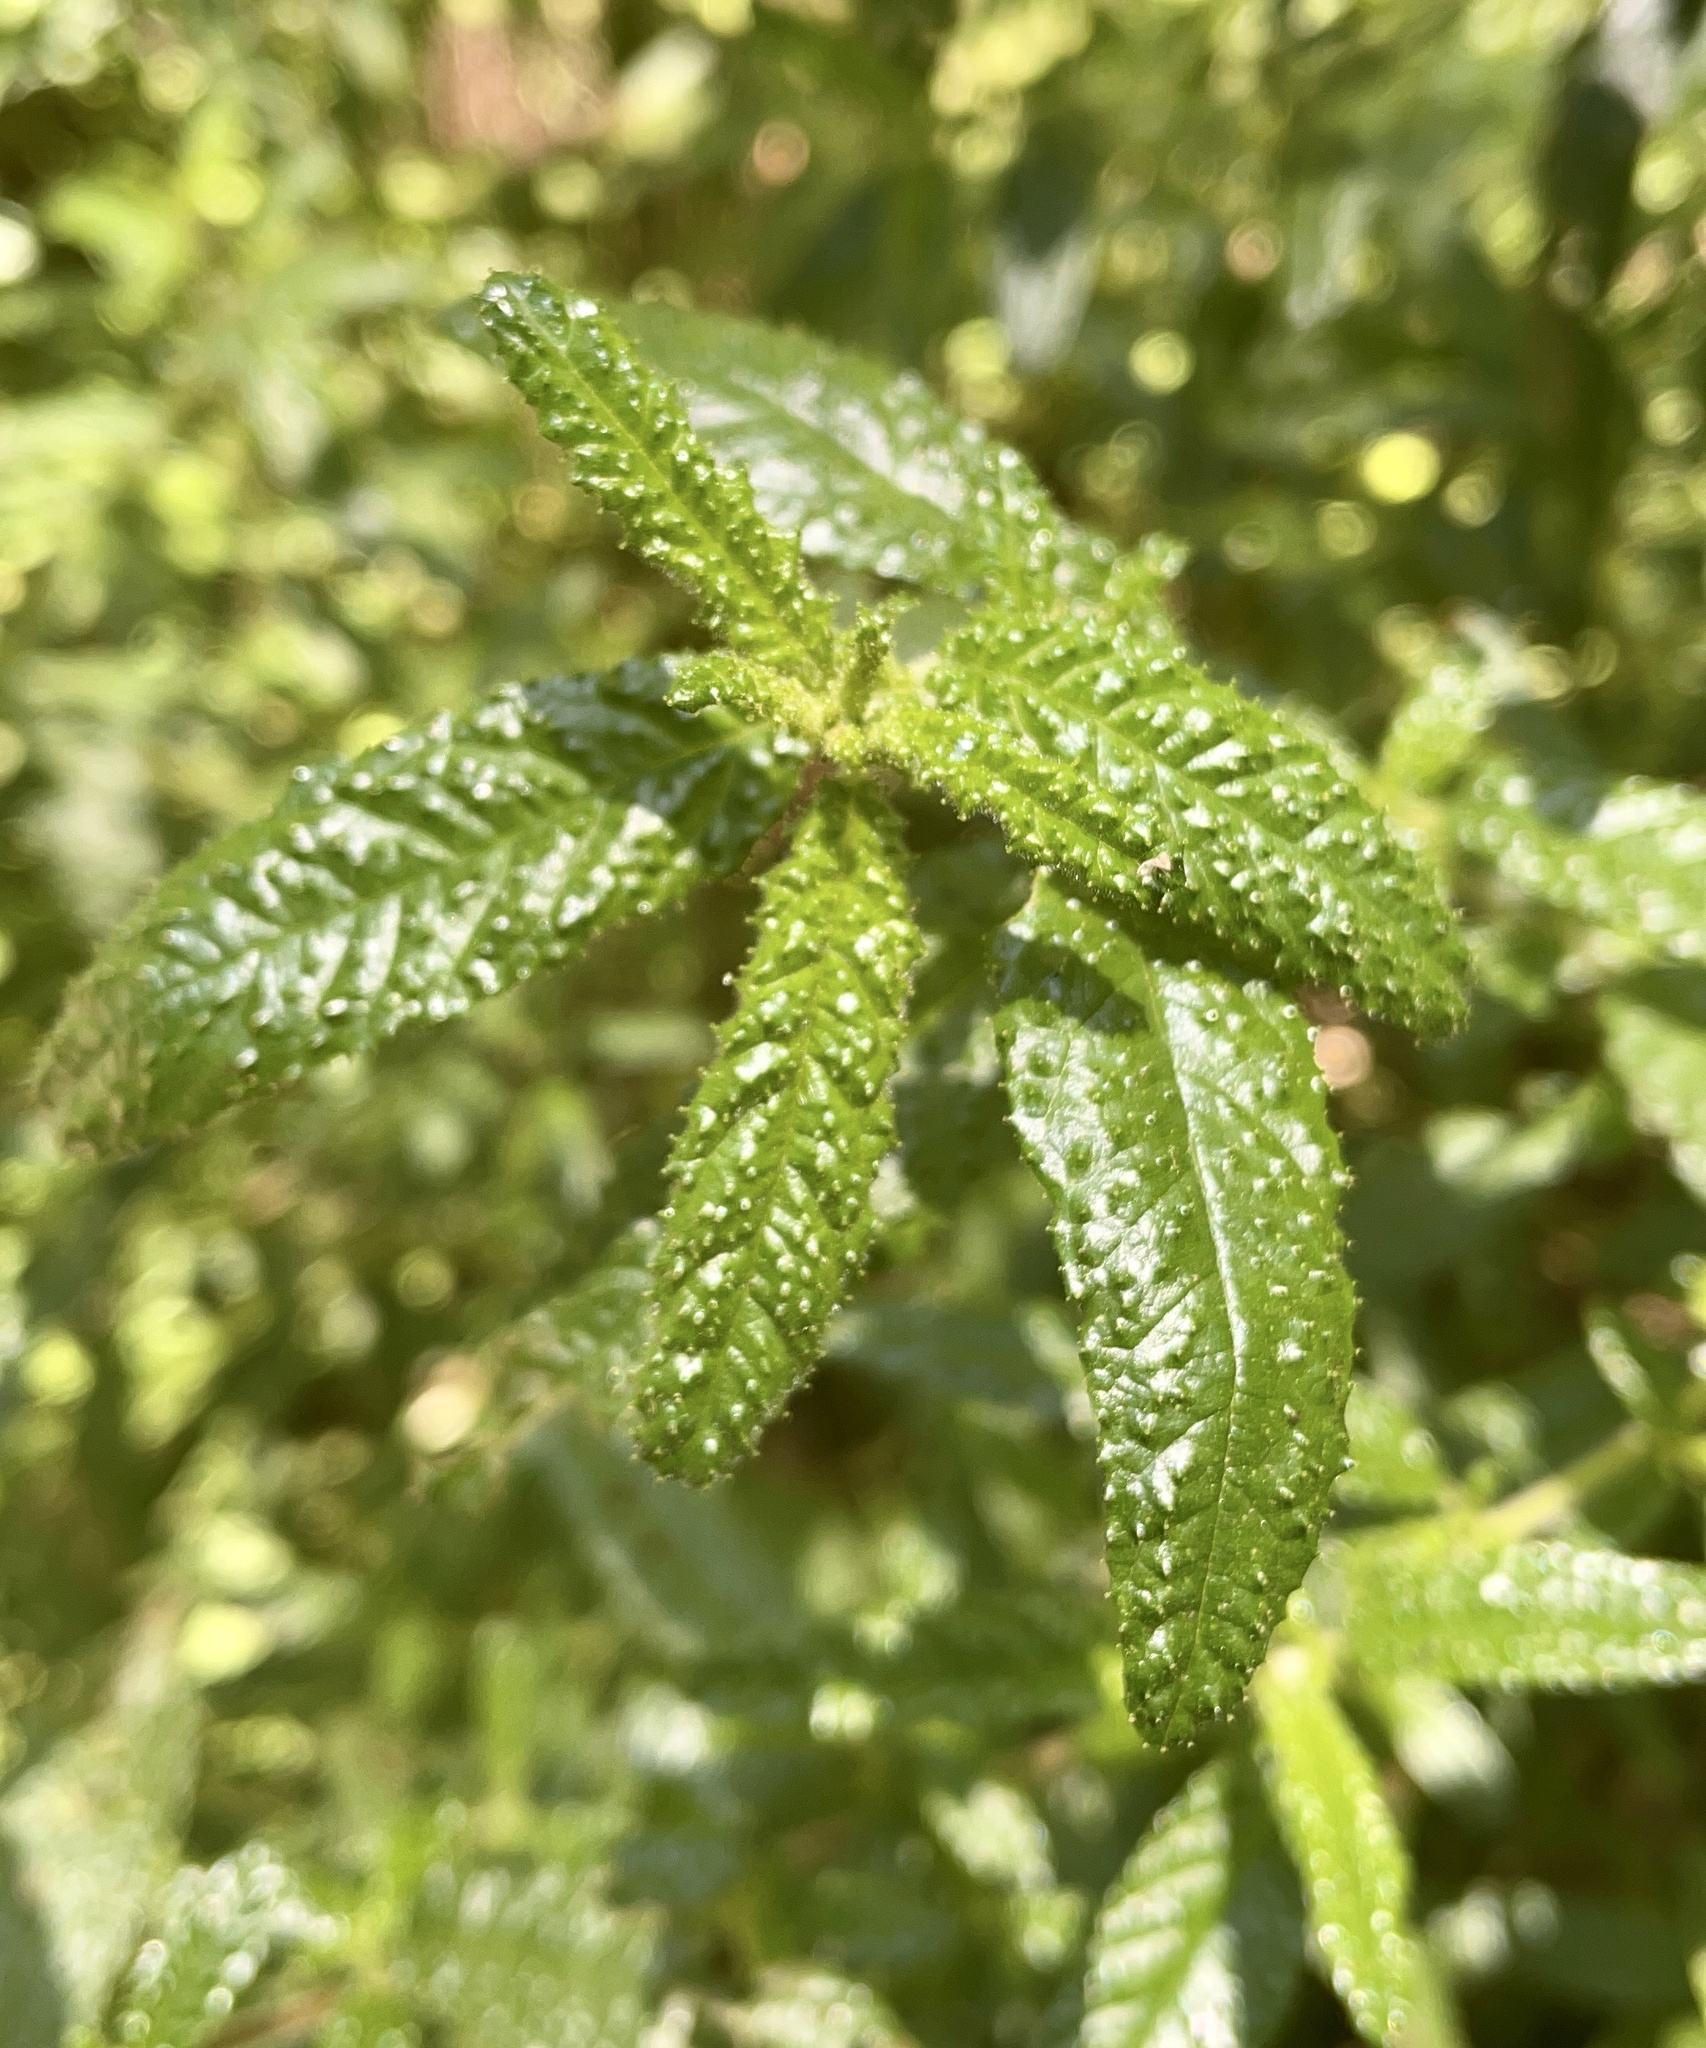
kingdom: Plantae
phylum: Tracheophyta
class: Magnoliopsida
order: Rosales
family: Rhamnaceae
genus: Ceanothus
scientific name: Ceanothus papillosus
